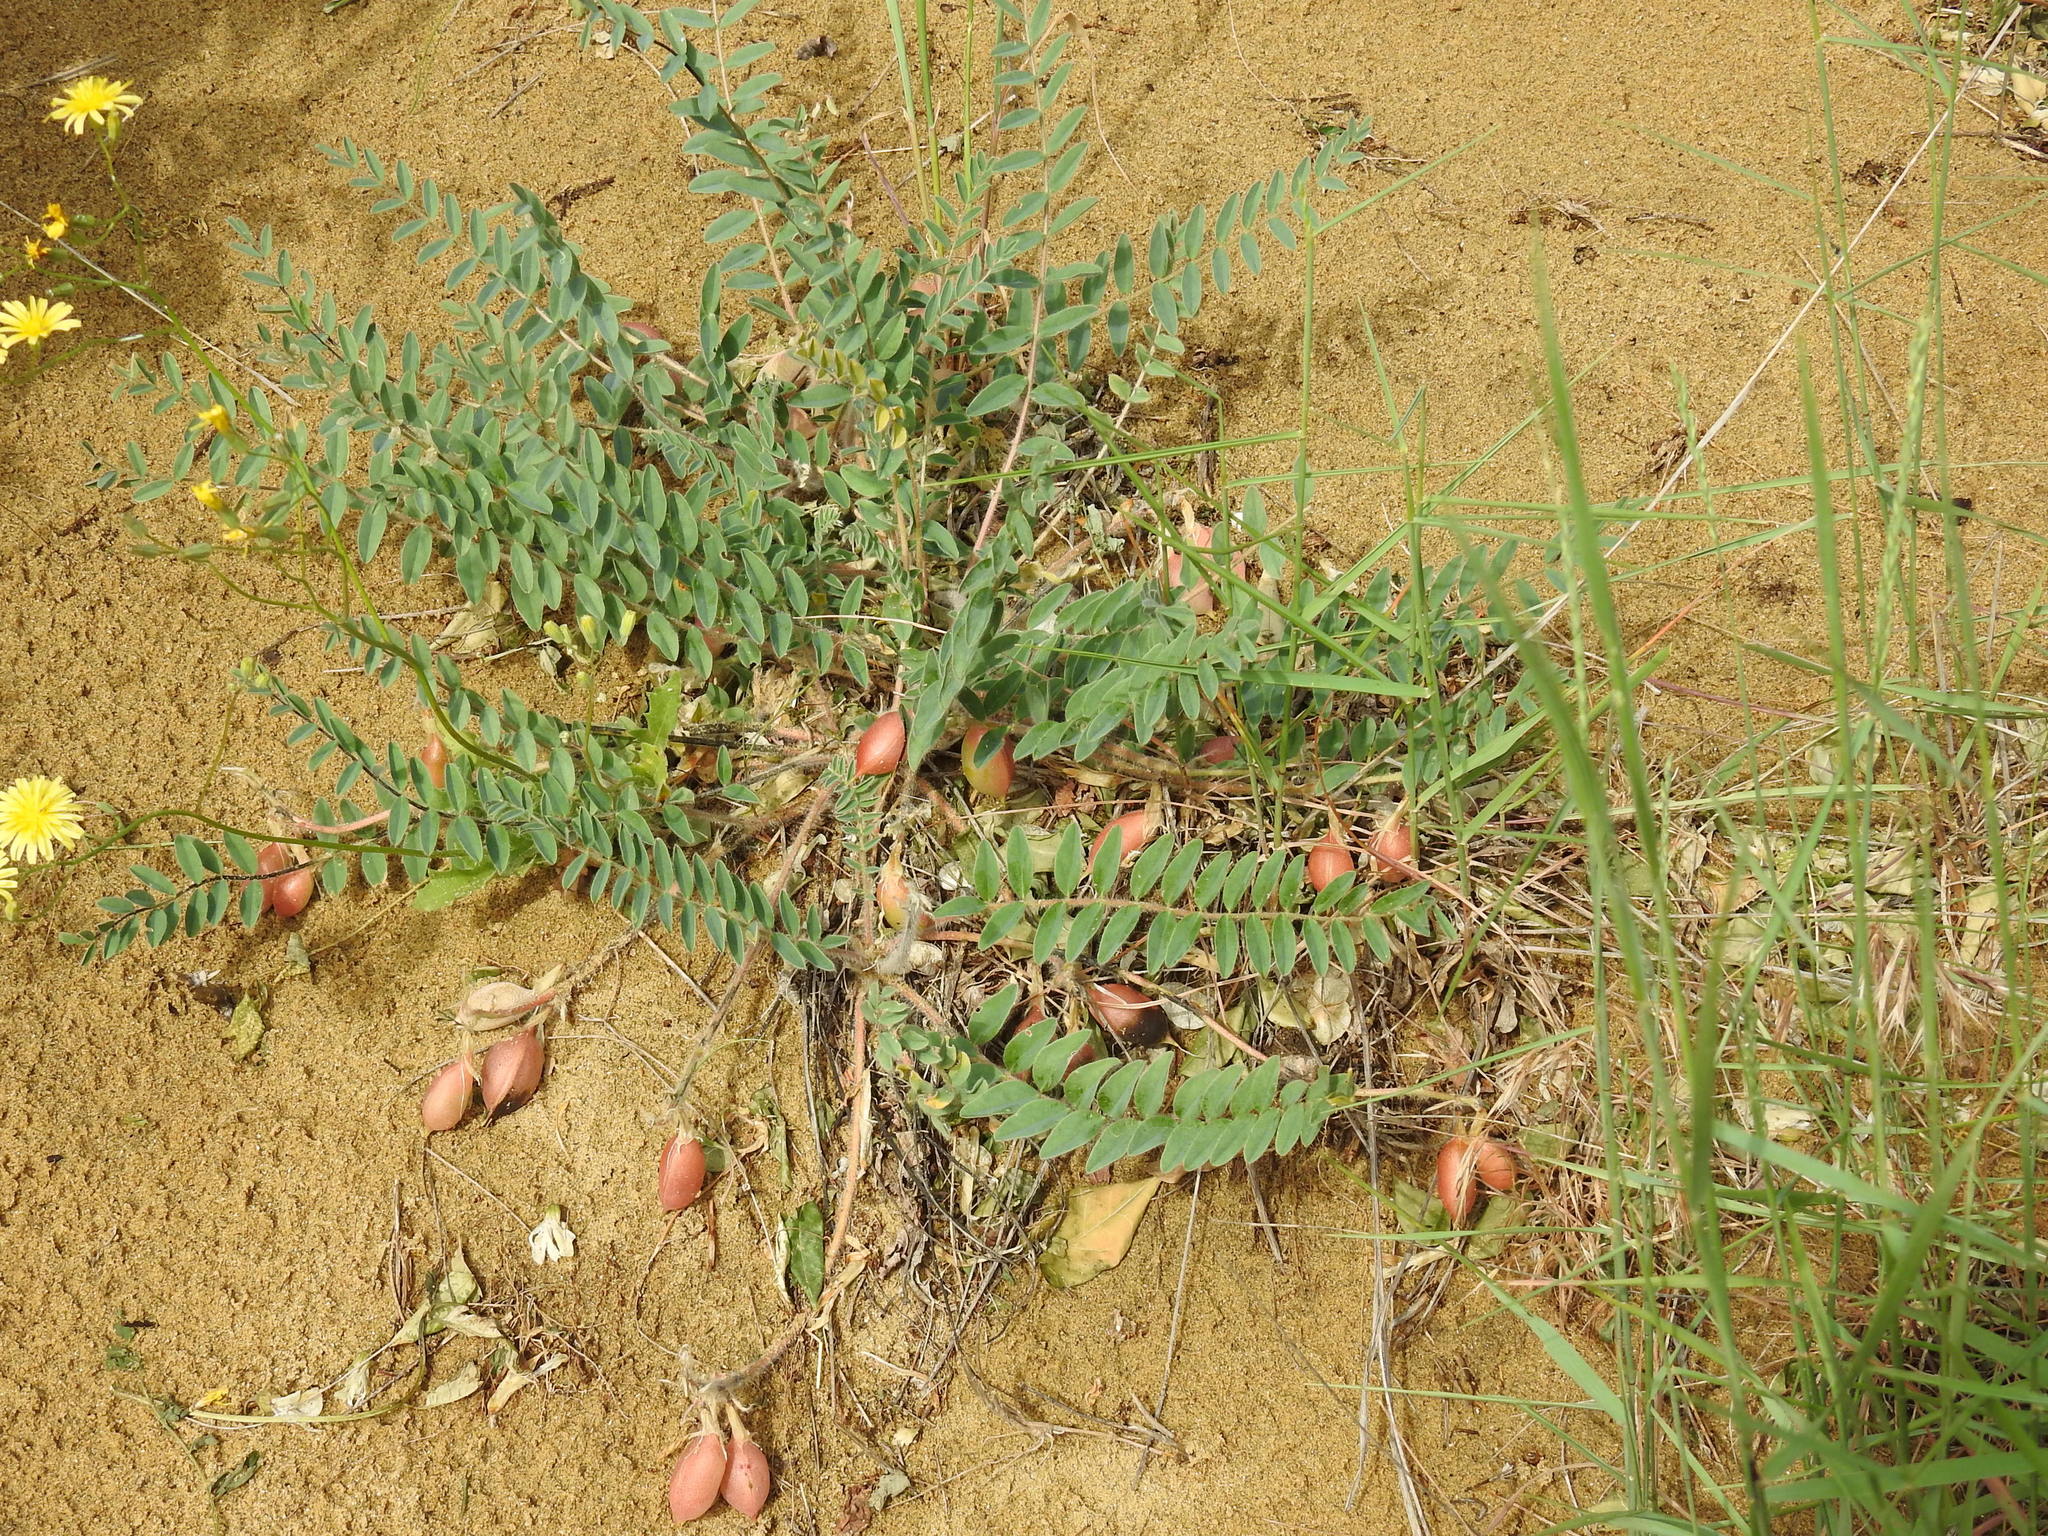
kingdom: Plantae
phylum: Tracheophyta
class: Magnoliopsida
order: Fabales
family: Fabaceae
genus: Astragalus
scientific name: Astragalus longipetalus
